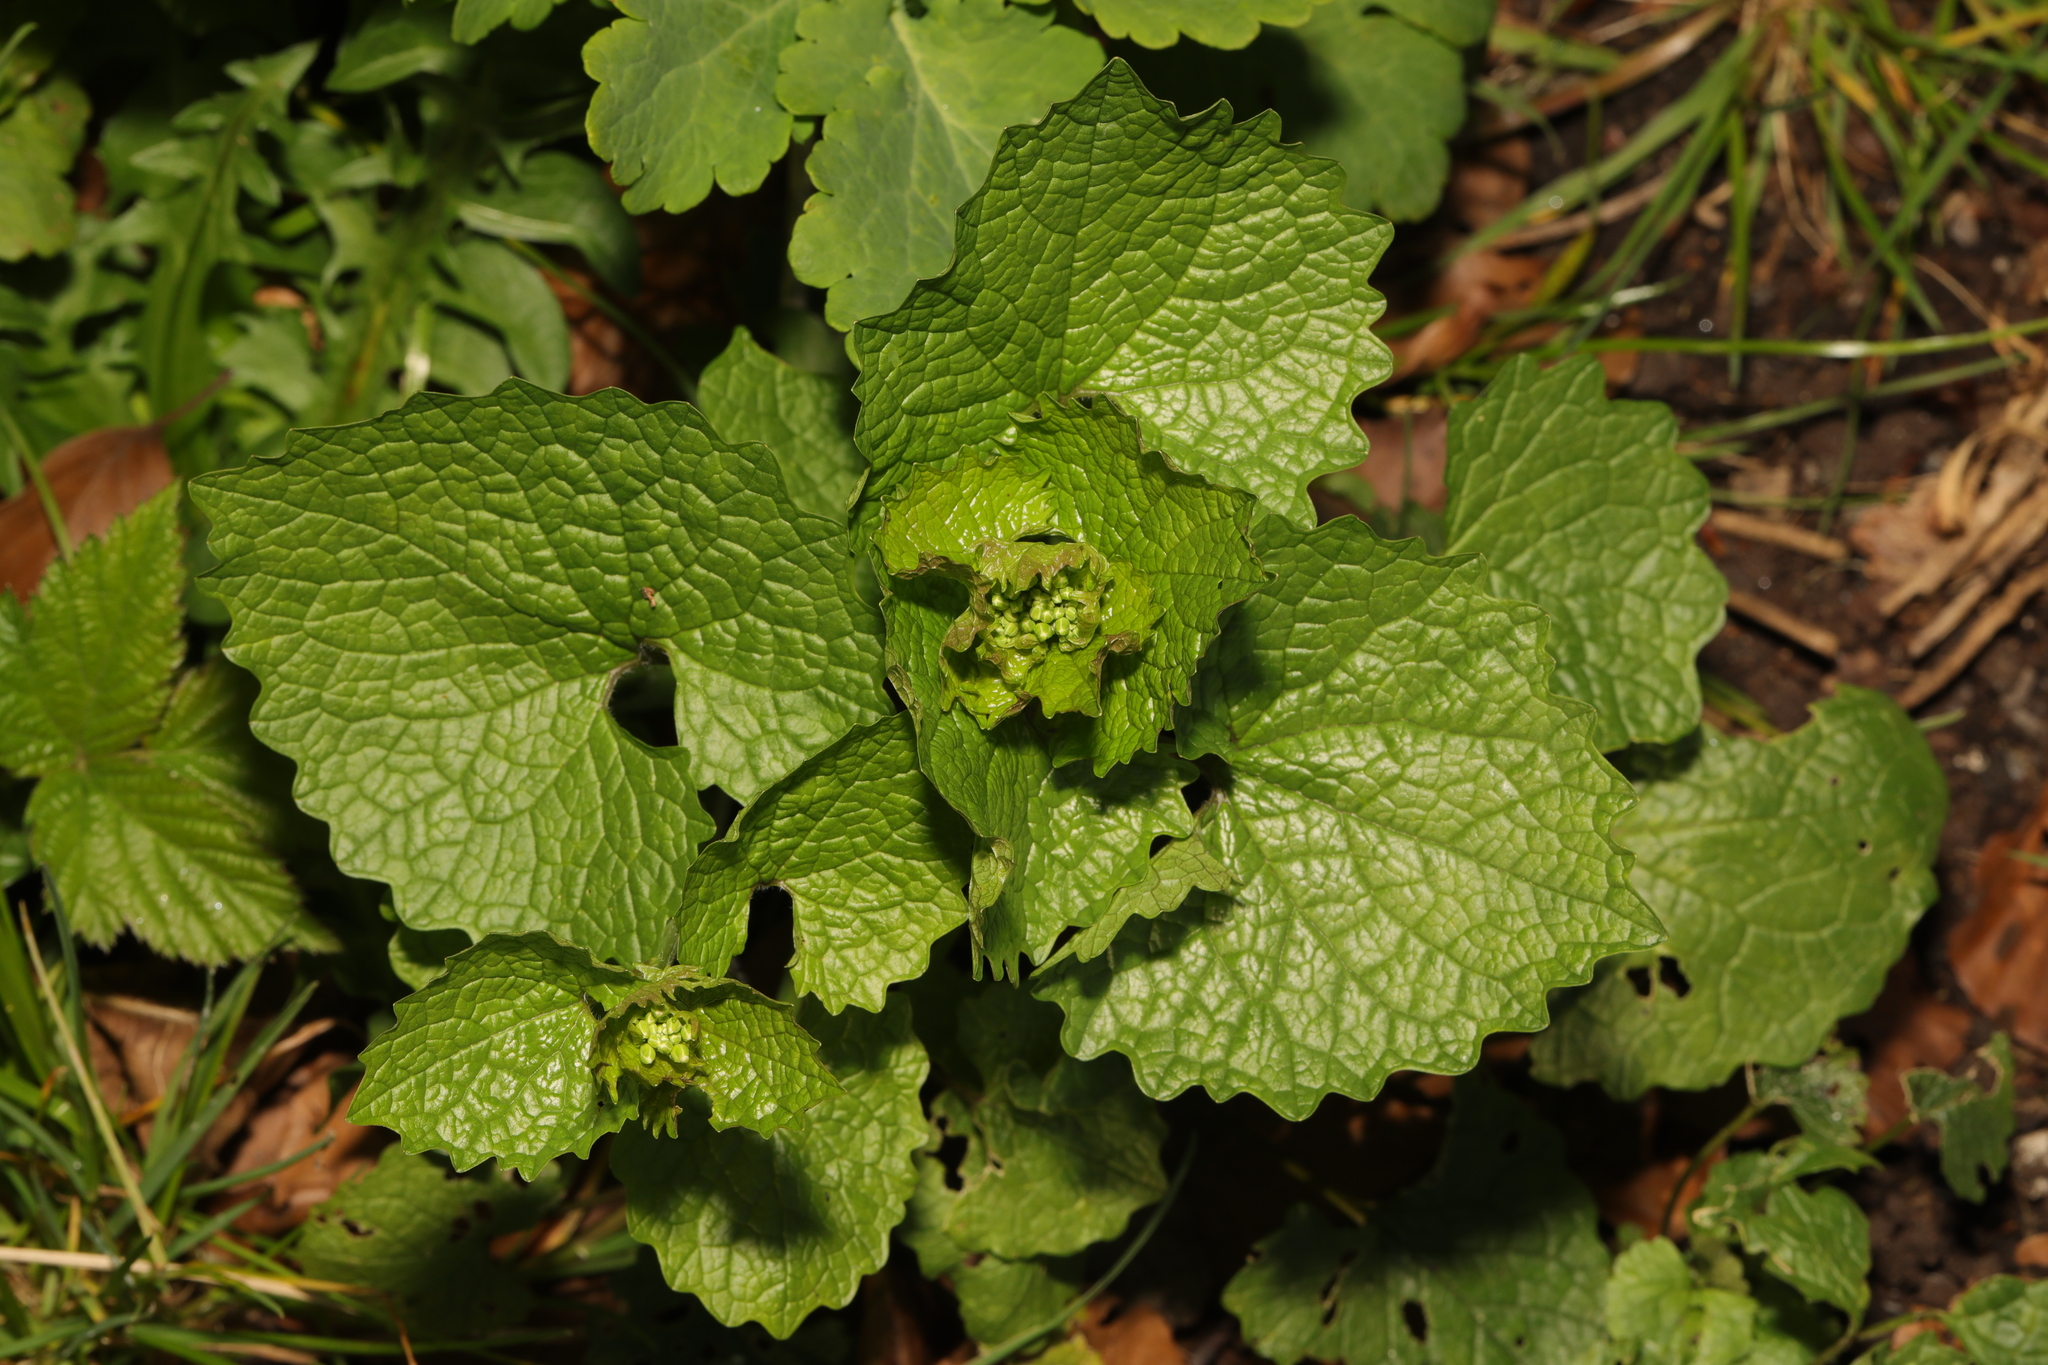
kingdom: Plantae
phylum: Tracheophyta
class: Magnoliopsida
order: Brassicales
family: Brassicaceae
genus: Alliaria
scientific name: Alliaria petiolata
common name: Garlic mustard
